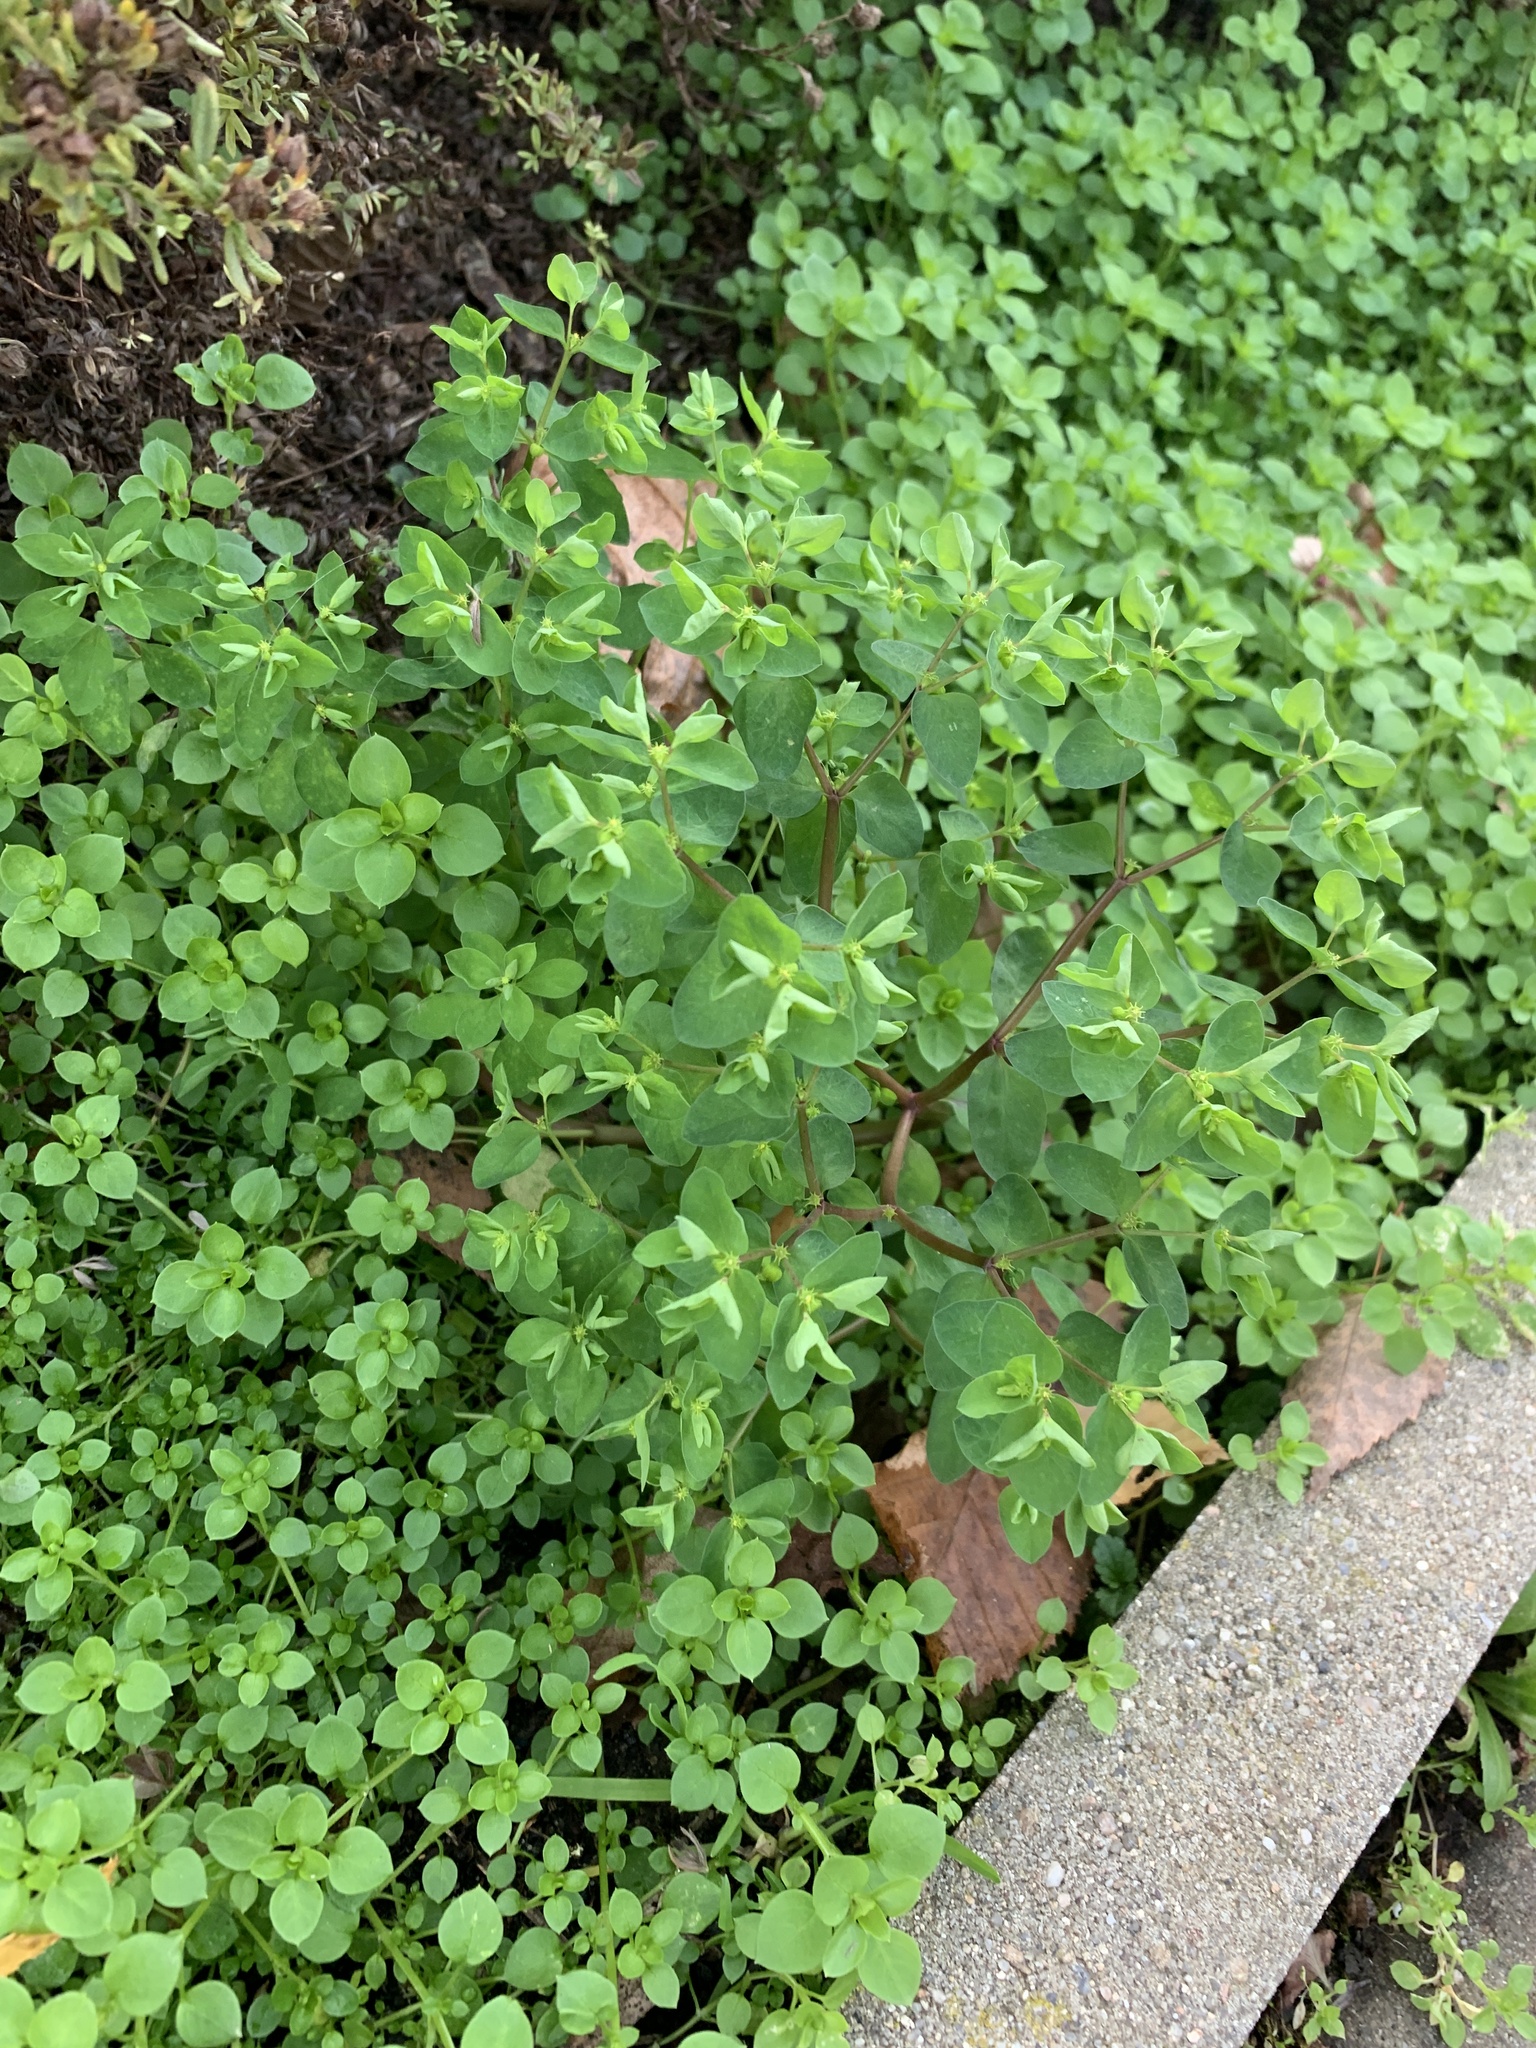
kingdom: Plantae
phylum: Tracheophyta
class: Magnoliopsida
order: Malpighiales
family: Euphorbiaceae
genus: Euphorbia
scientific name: Euphorbia peplus
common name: Petty spurge
